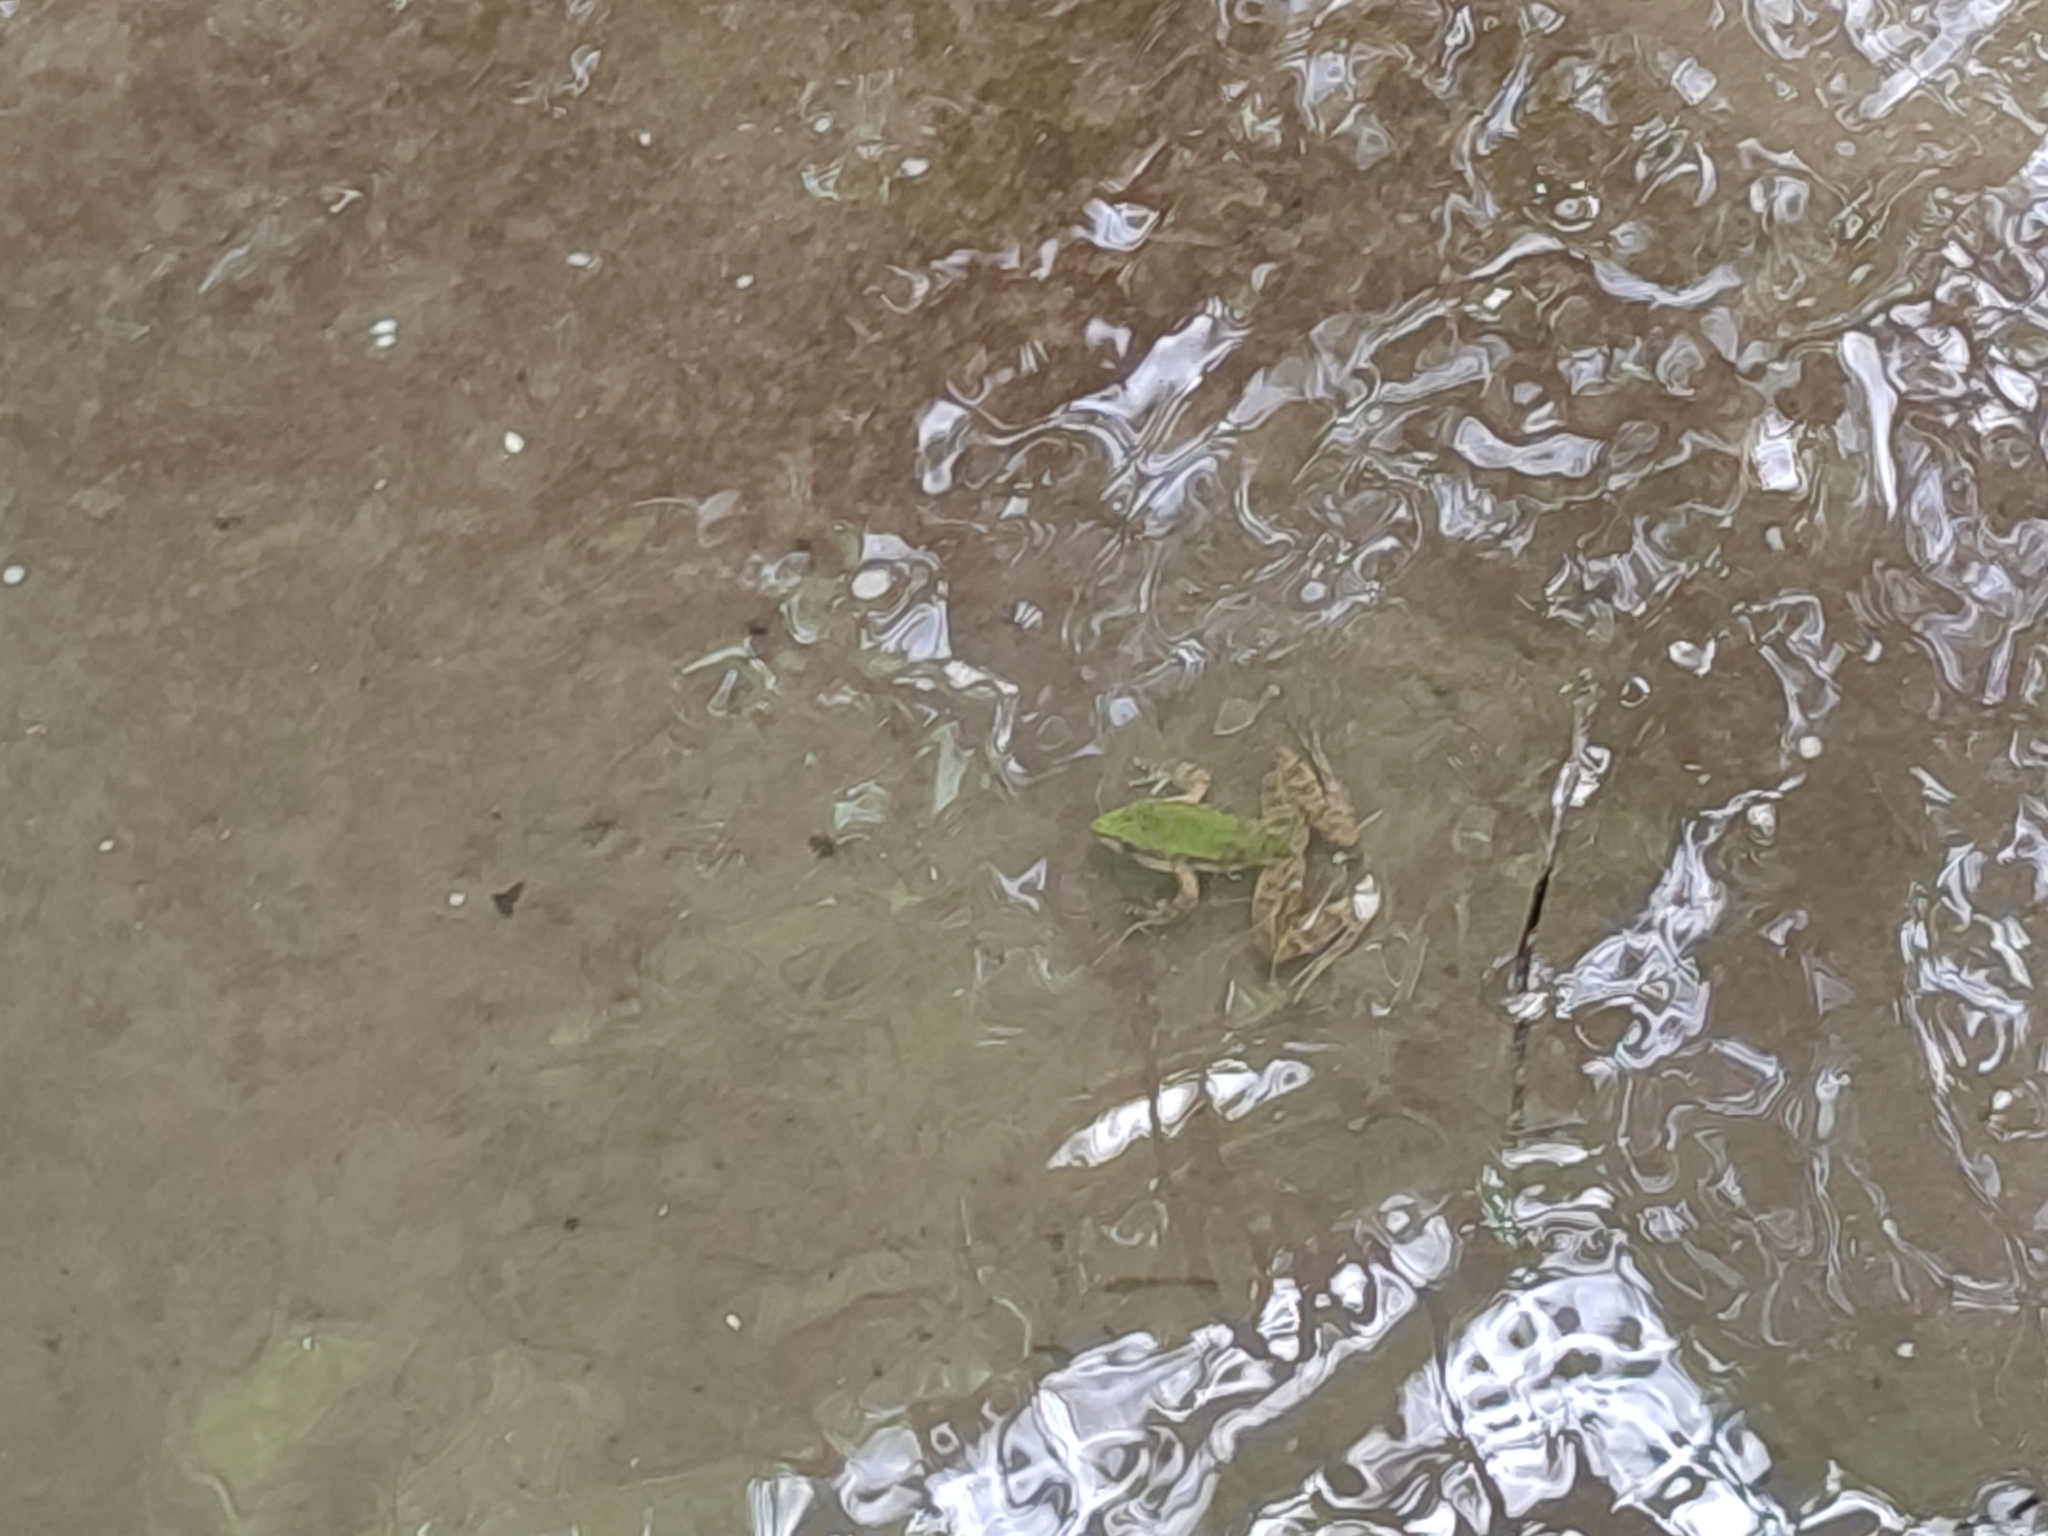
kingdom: Animalia
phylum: Chordata
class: Amphibia
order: Anura
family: Ranidae
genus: Odorrana
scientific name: Odorrana swinhoana
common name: Bangkimtsing frog
